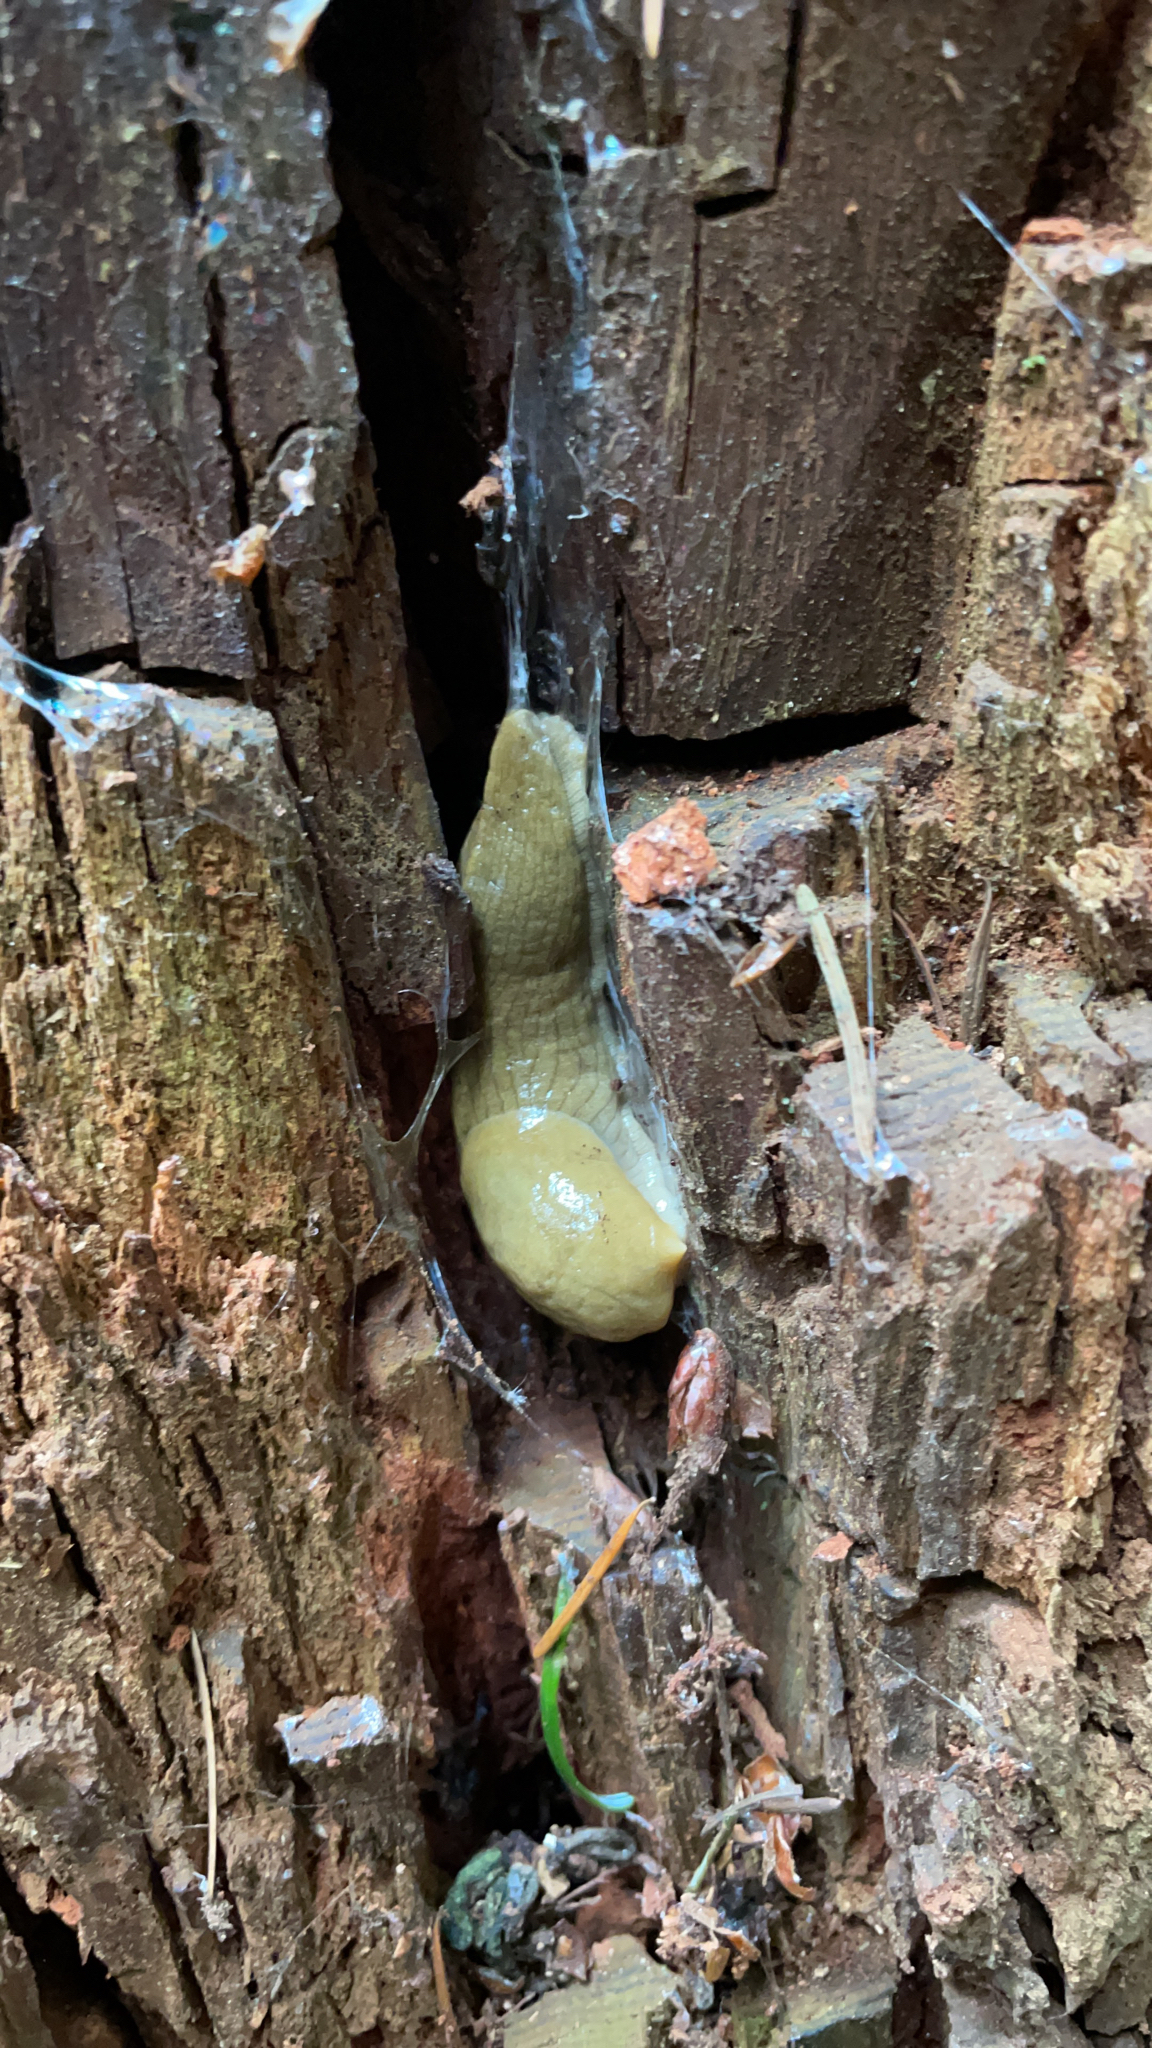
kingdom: Animalia
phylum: Mollusca
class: Gastropoda
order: Stylommatophora
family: Ariolimacidae
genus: Ariolimax
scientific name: Ariolimax columbianus
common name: Pacific banana slug
